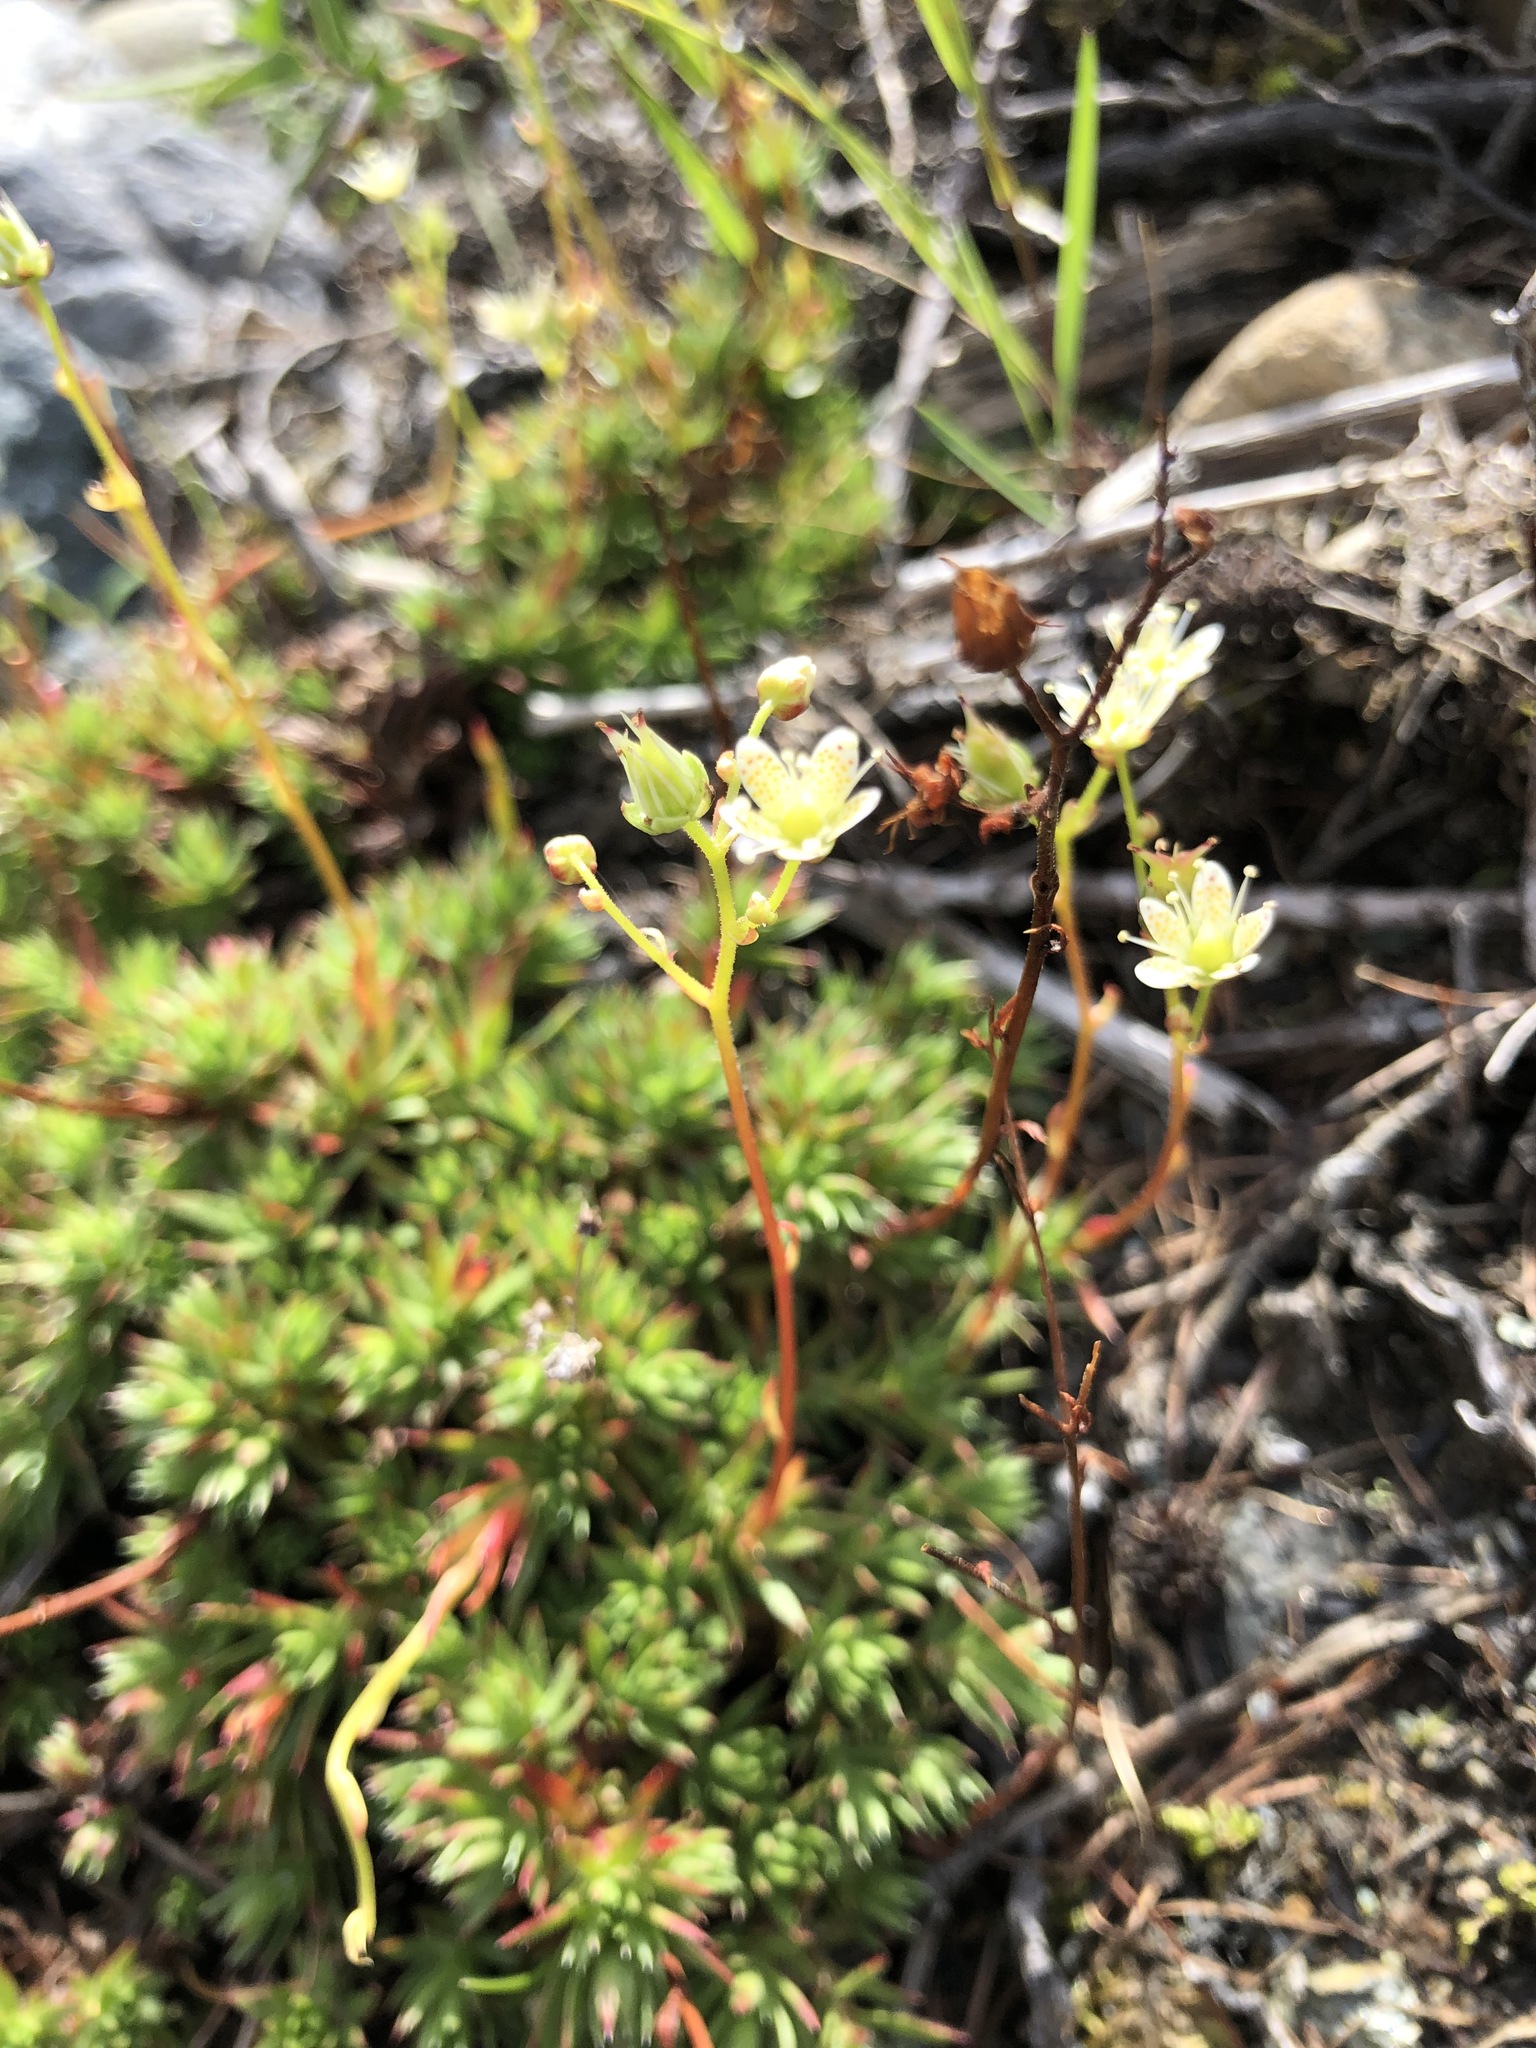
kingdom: Plantae
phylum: Tracheophyta
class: Magnoliopsida
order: Saxifragales
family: Saxifragaceae
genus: Saxifraga
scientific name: Saxifraga
